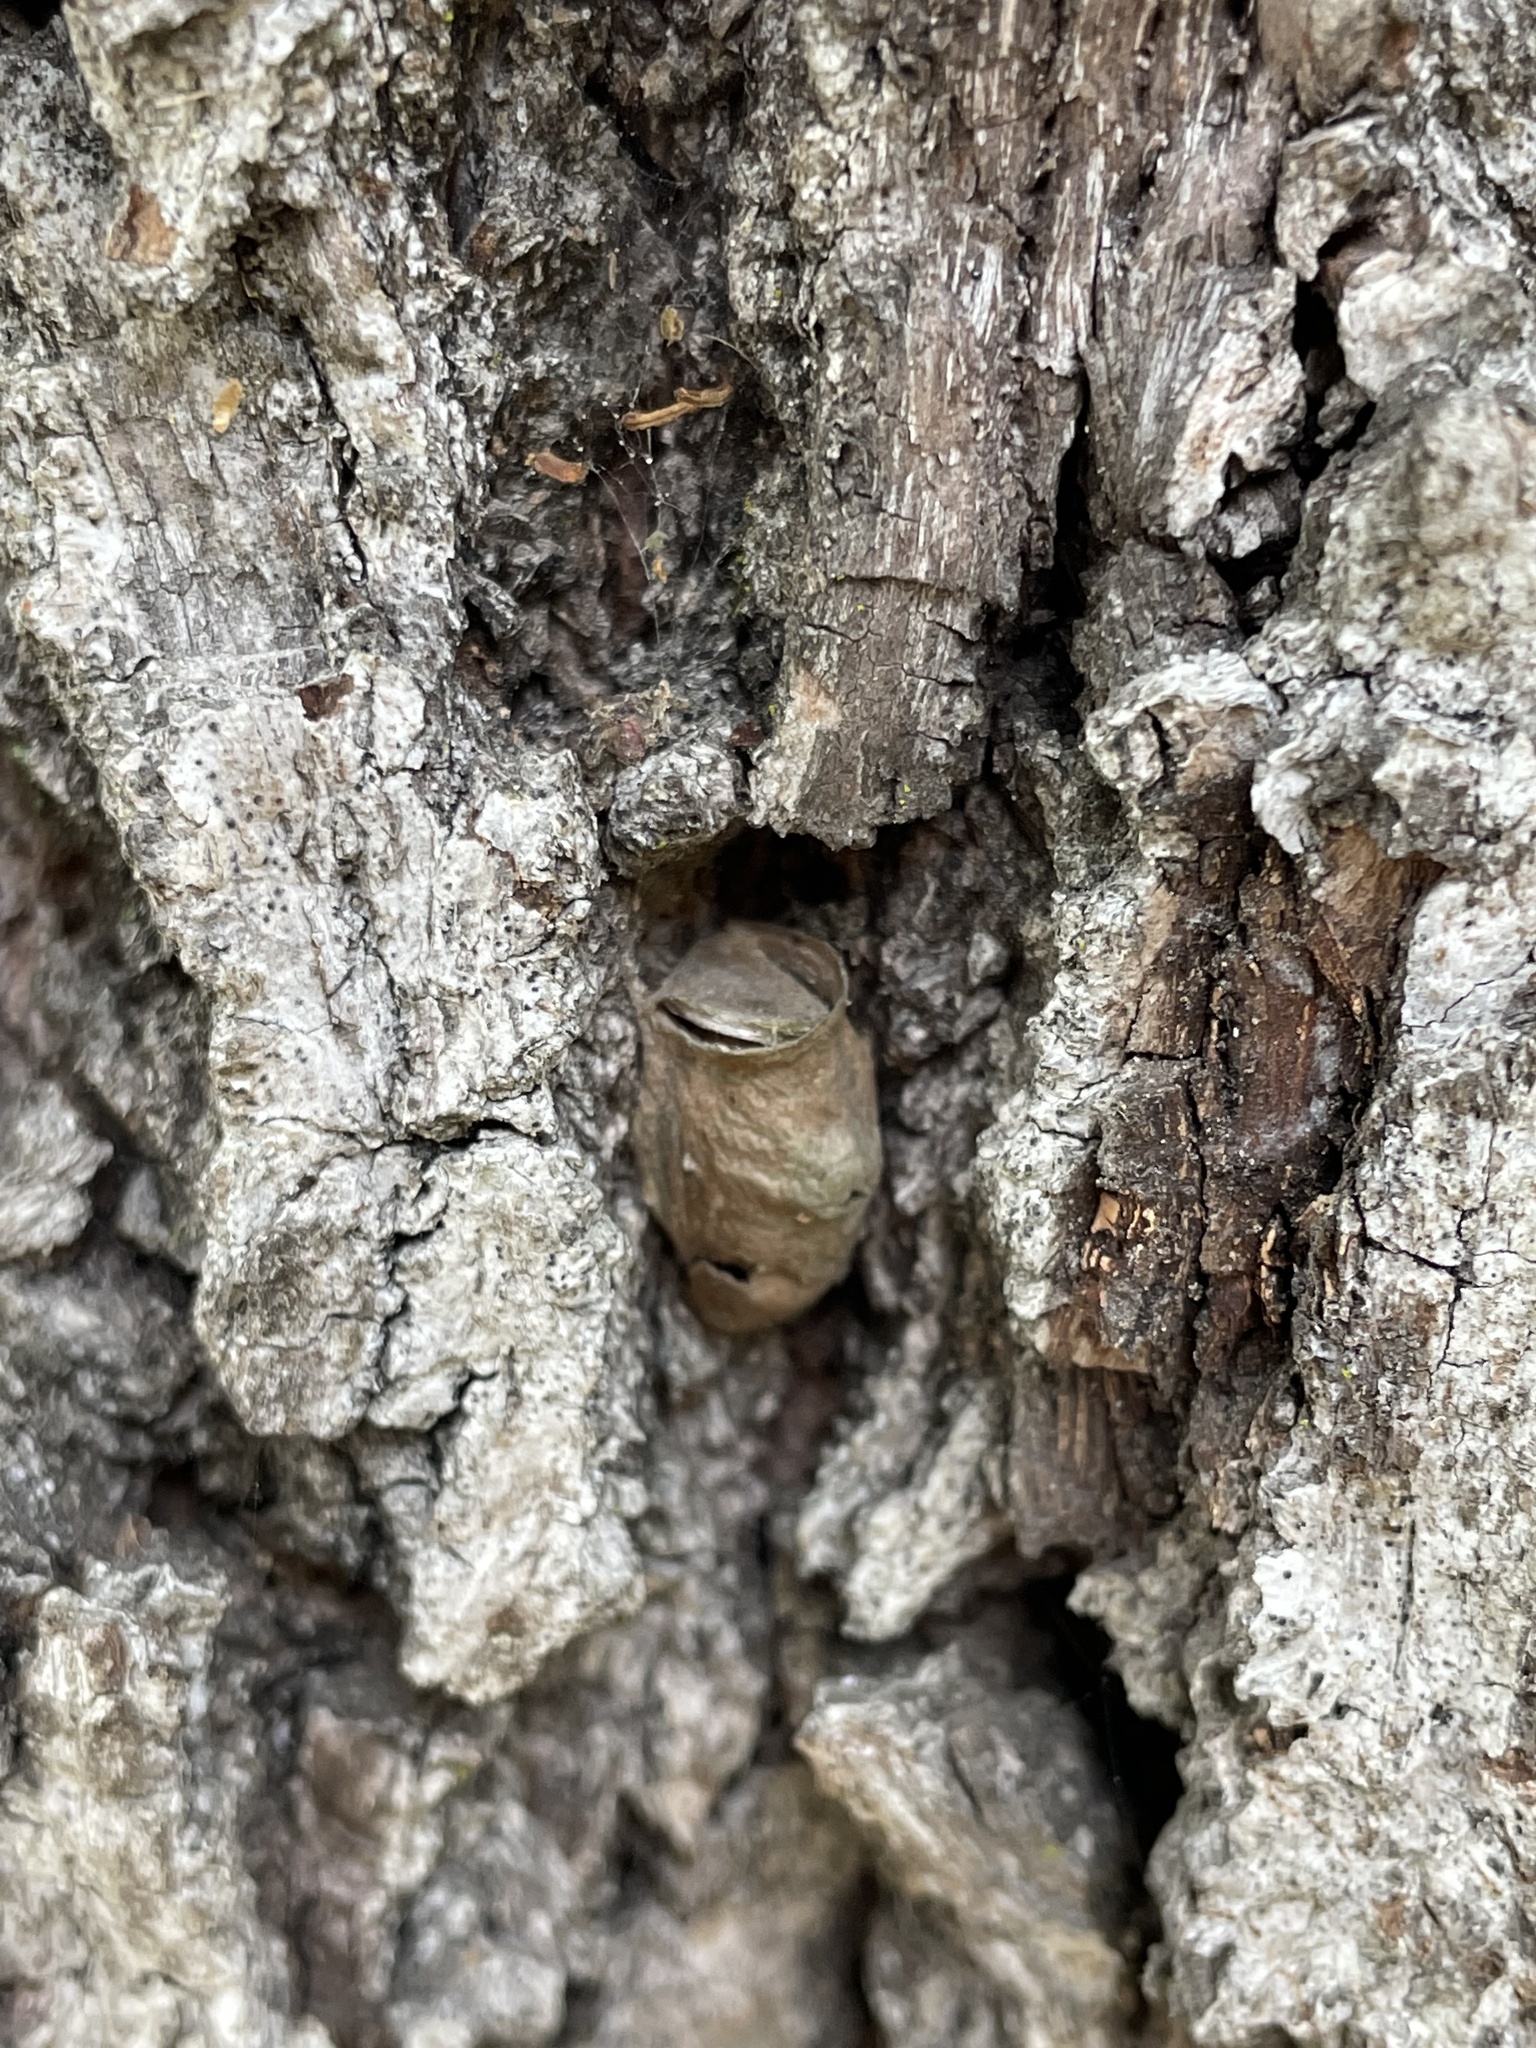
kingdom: Animalia
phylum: Arthropoda
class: Insecta
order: Lepidoptera
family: Megalopygidae
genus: Megalopyge
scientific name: Megalopyge
